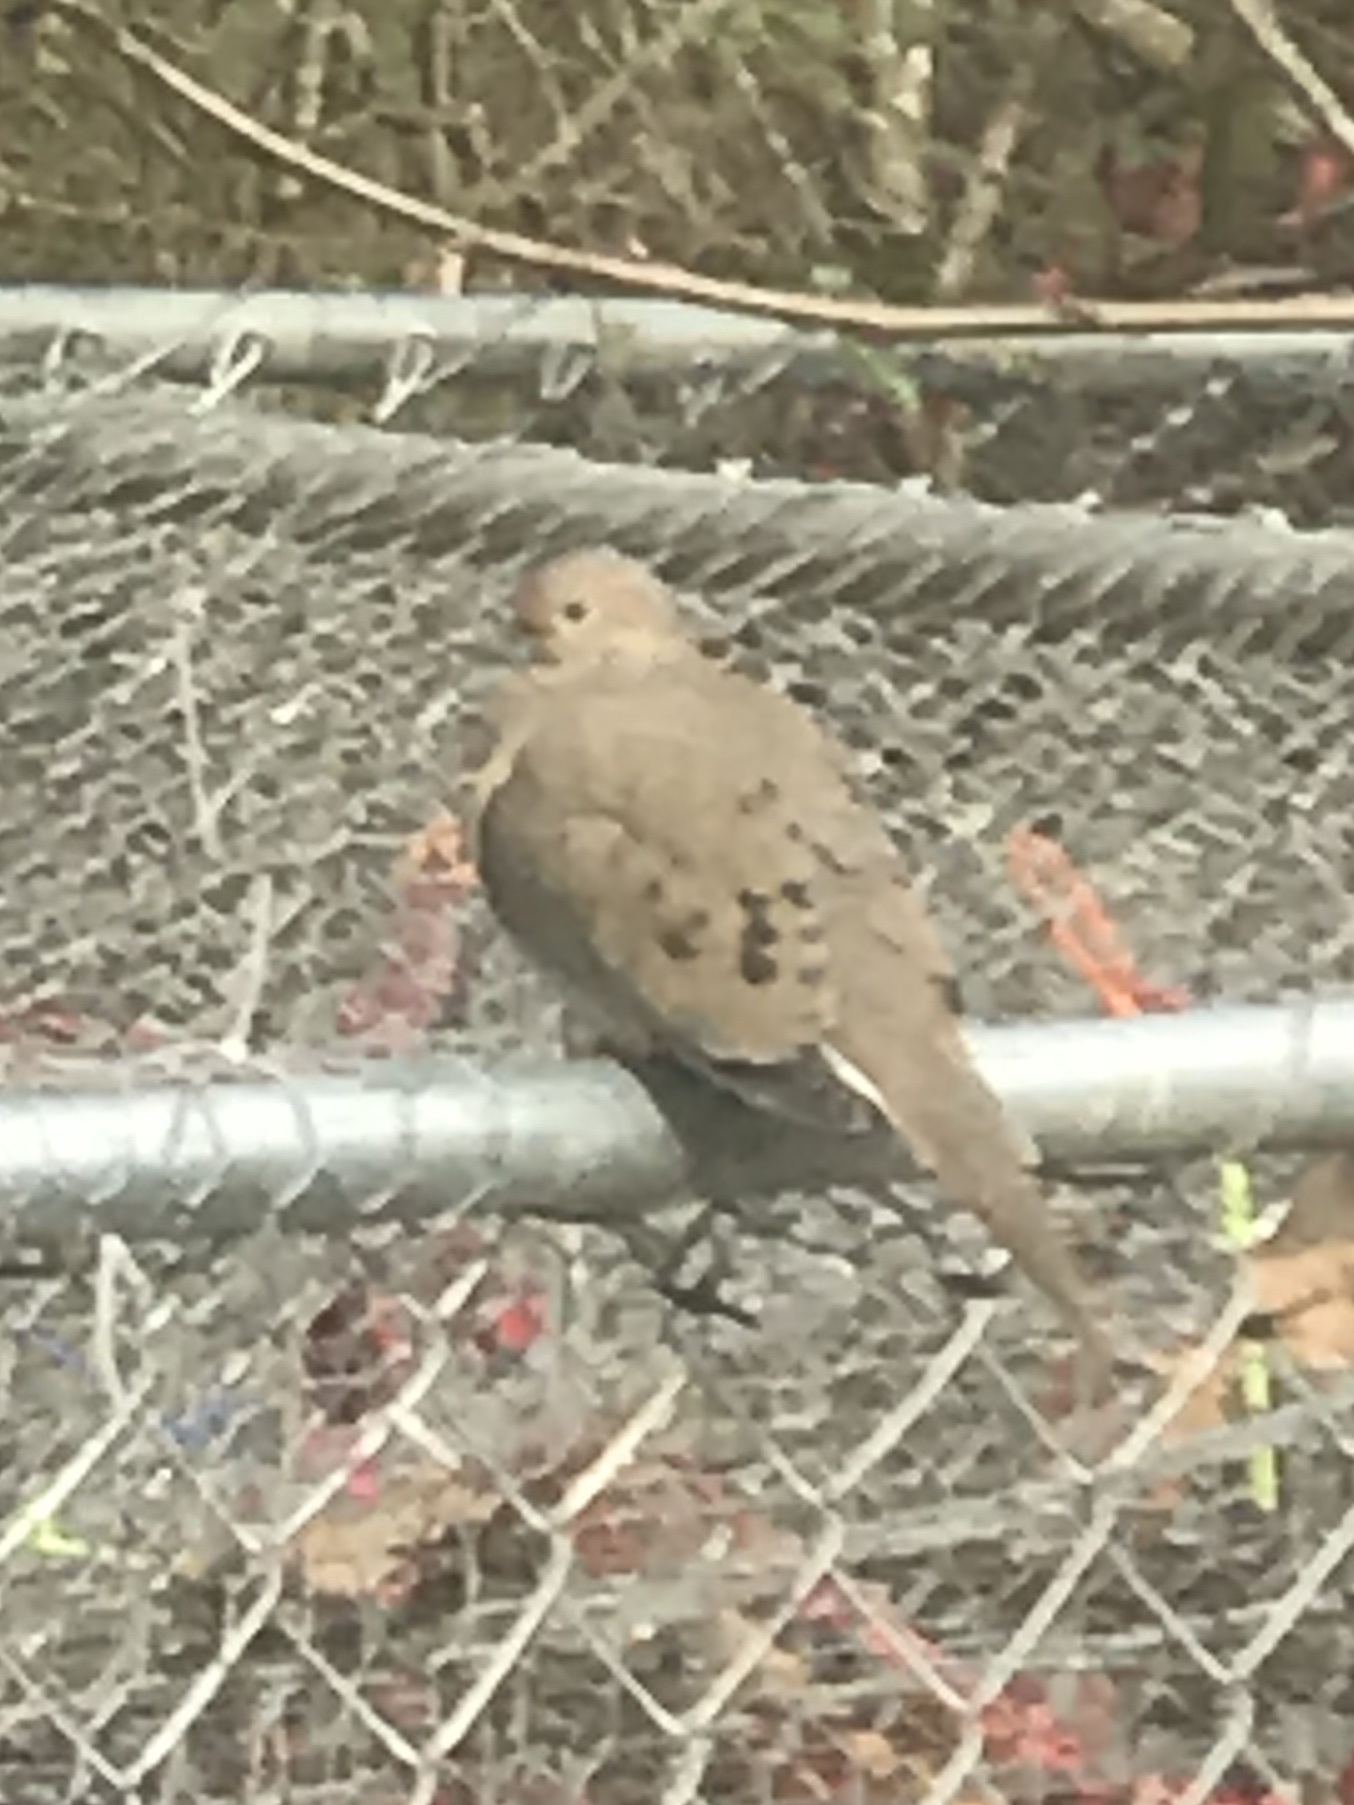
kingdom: Animalia
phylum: Chordata
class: Aves
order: Columbiformes
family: Columbidae
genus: Zenaida
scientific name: Zenaida macroura
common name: Mourning dove
